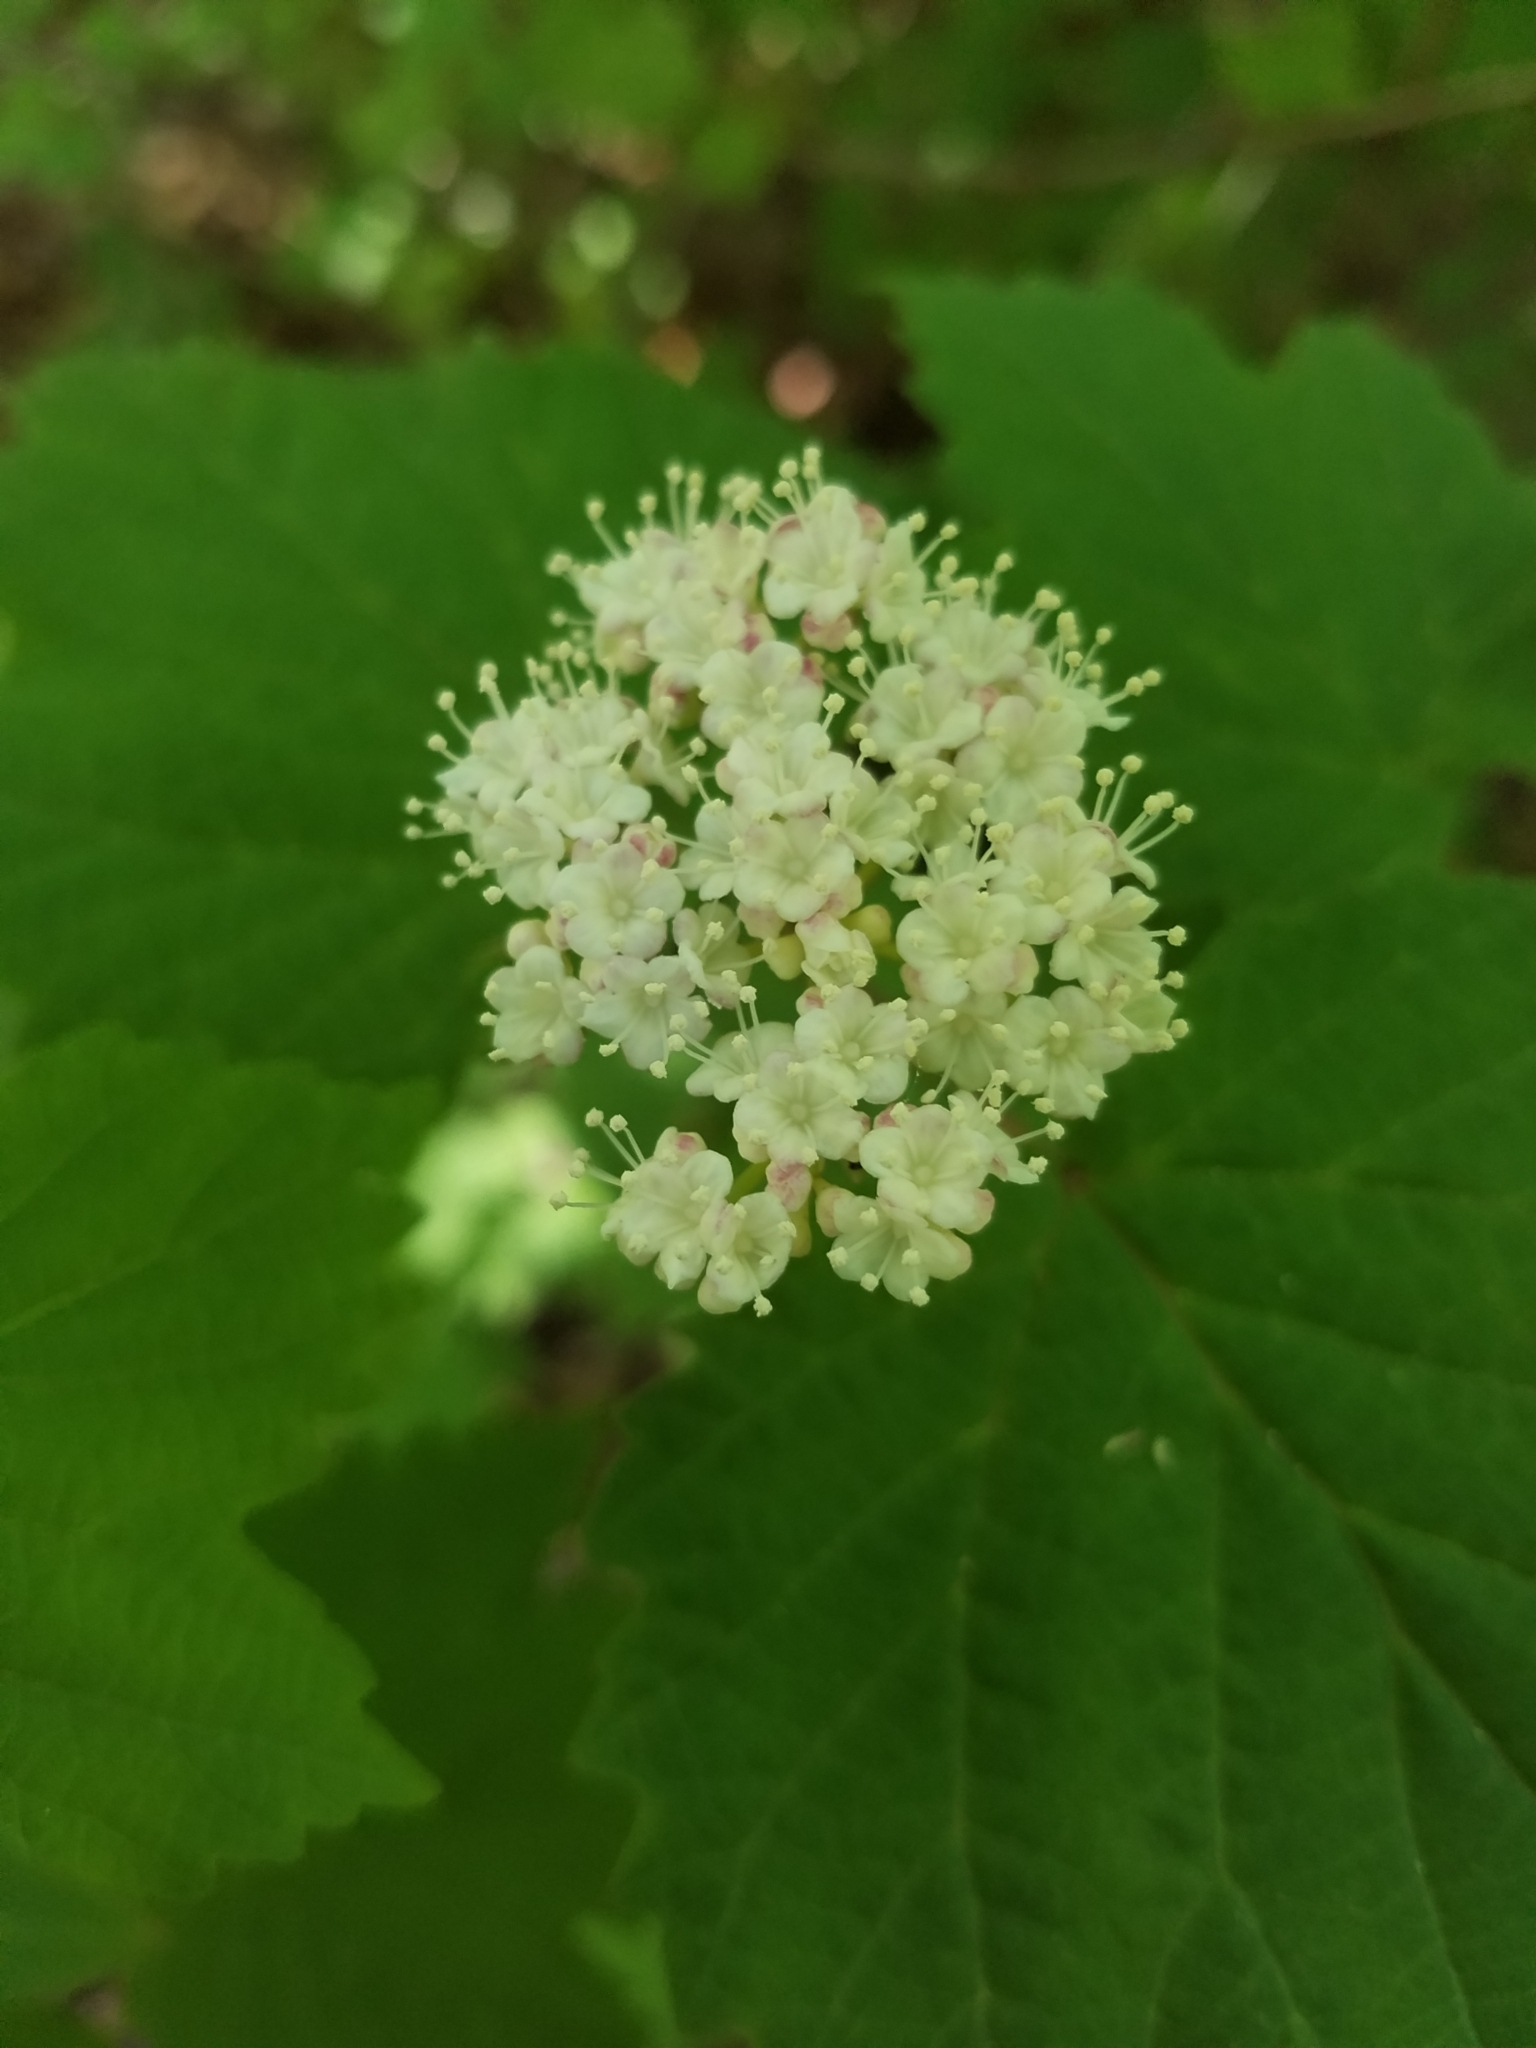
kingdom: Plantae
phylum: Tracheophyta
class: Magnoliopsida
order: Dipsacales
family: Viburnaceae
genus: Viburnum
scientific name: Viburnum acerifolium
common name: Dockmackie
